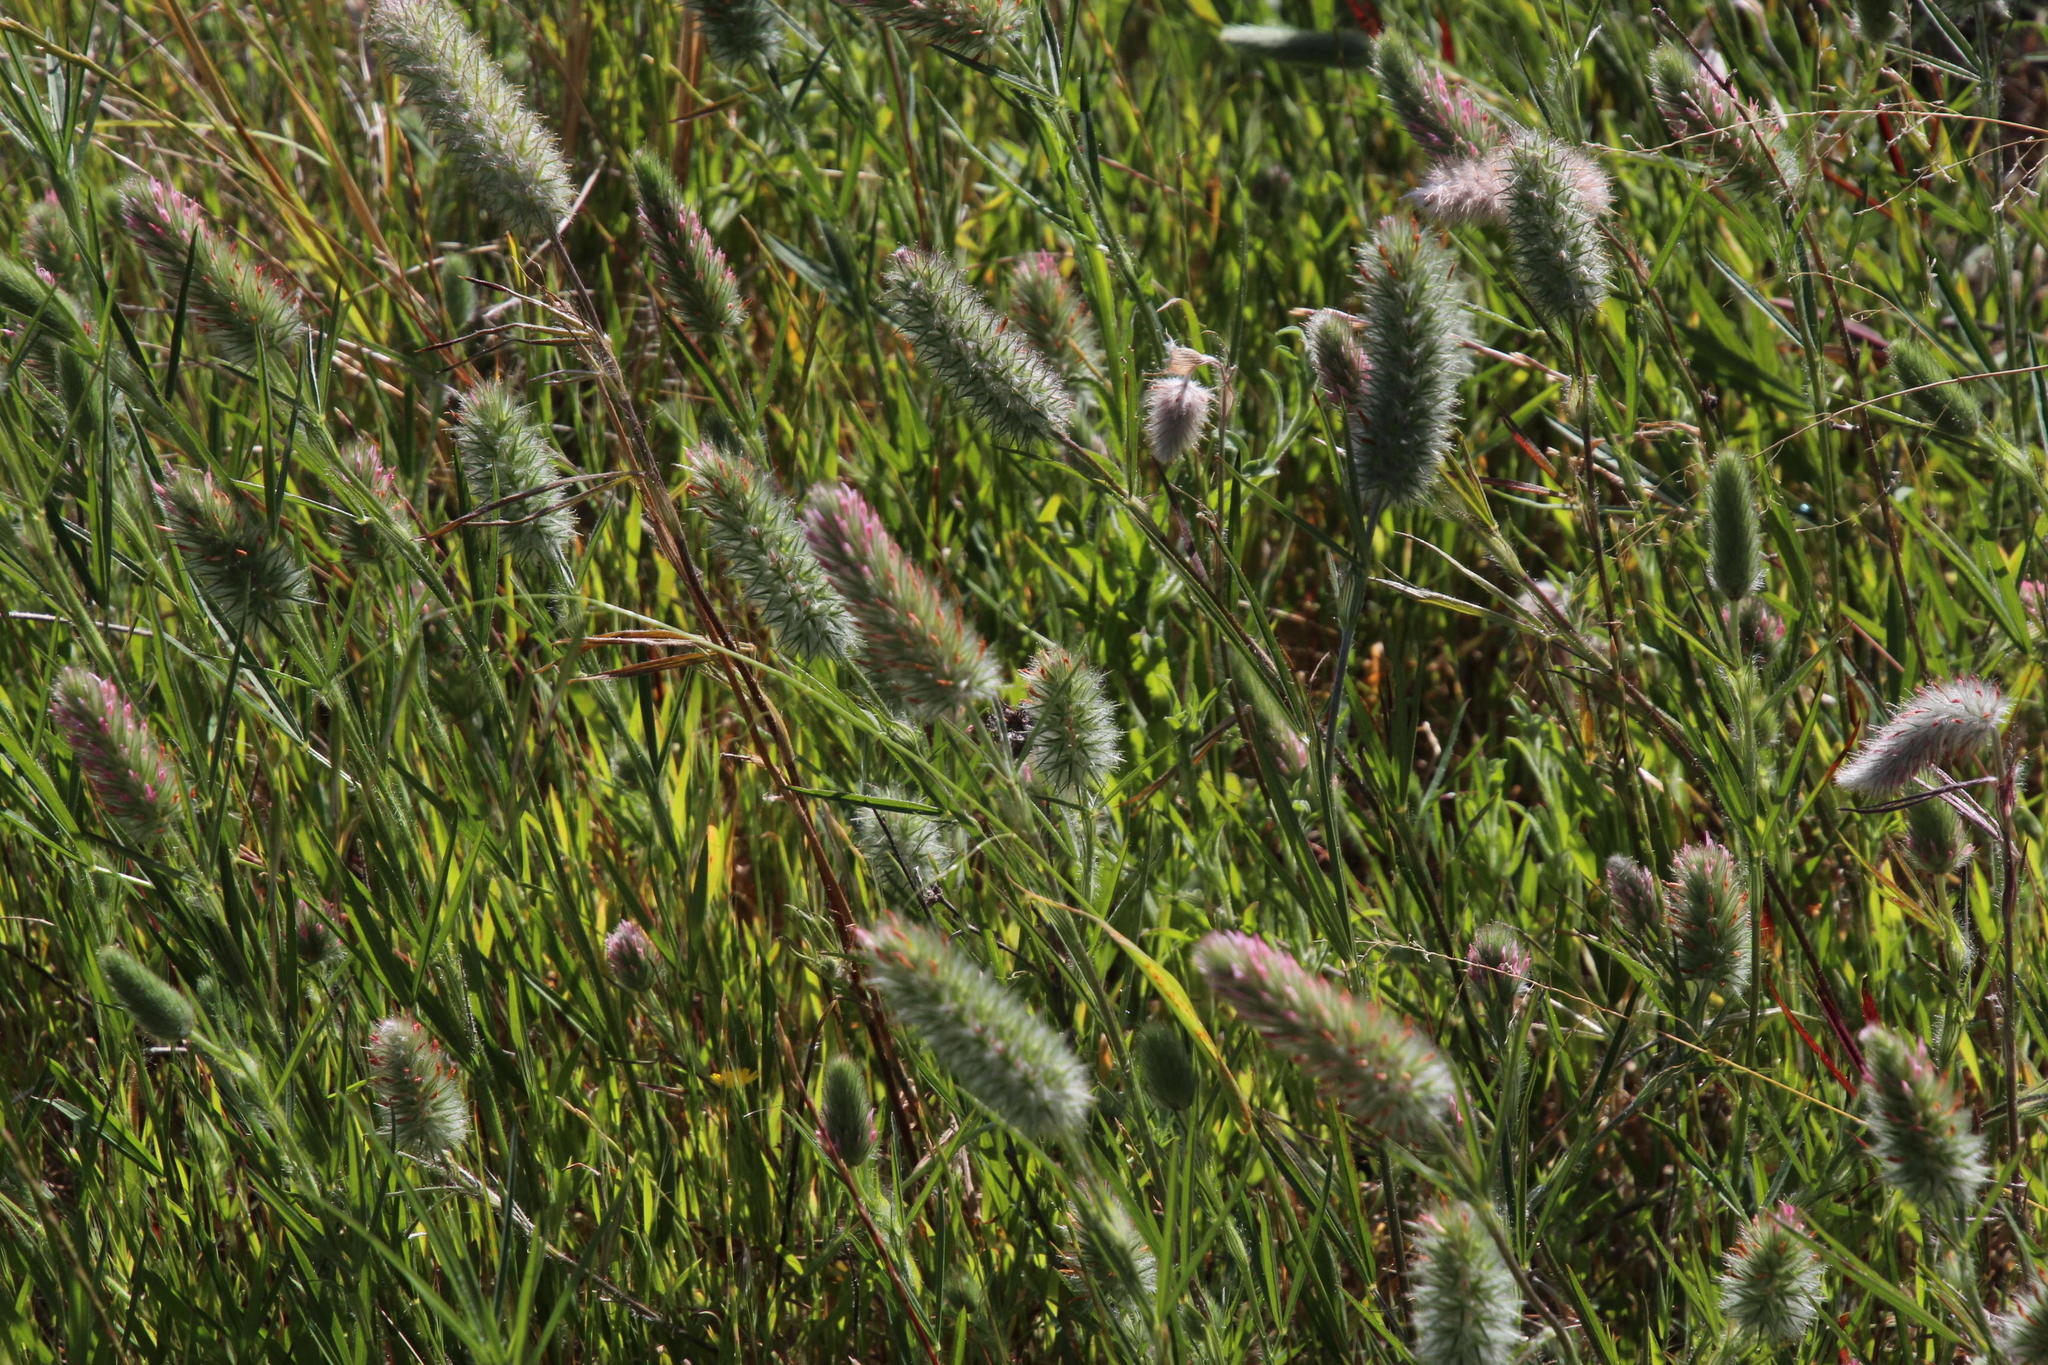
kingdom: Plantae
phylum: Tracheophyta
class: Magnoliopsida
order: Fabales
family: Fabaceae
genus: Trifolium
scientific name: Trifolium angustifolium
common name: Narrow clover
